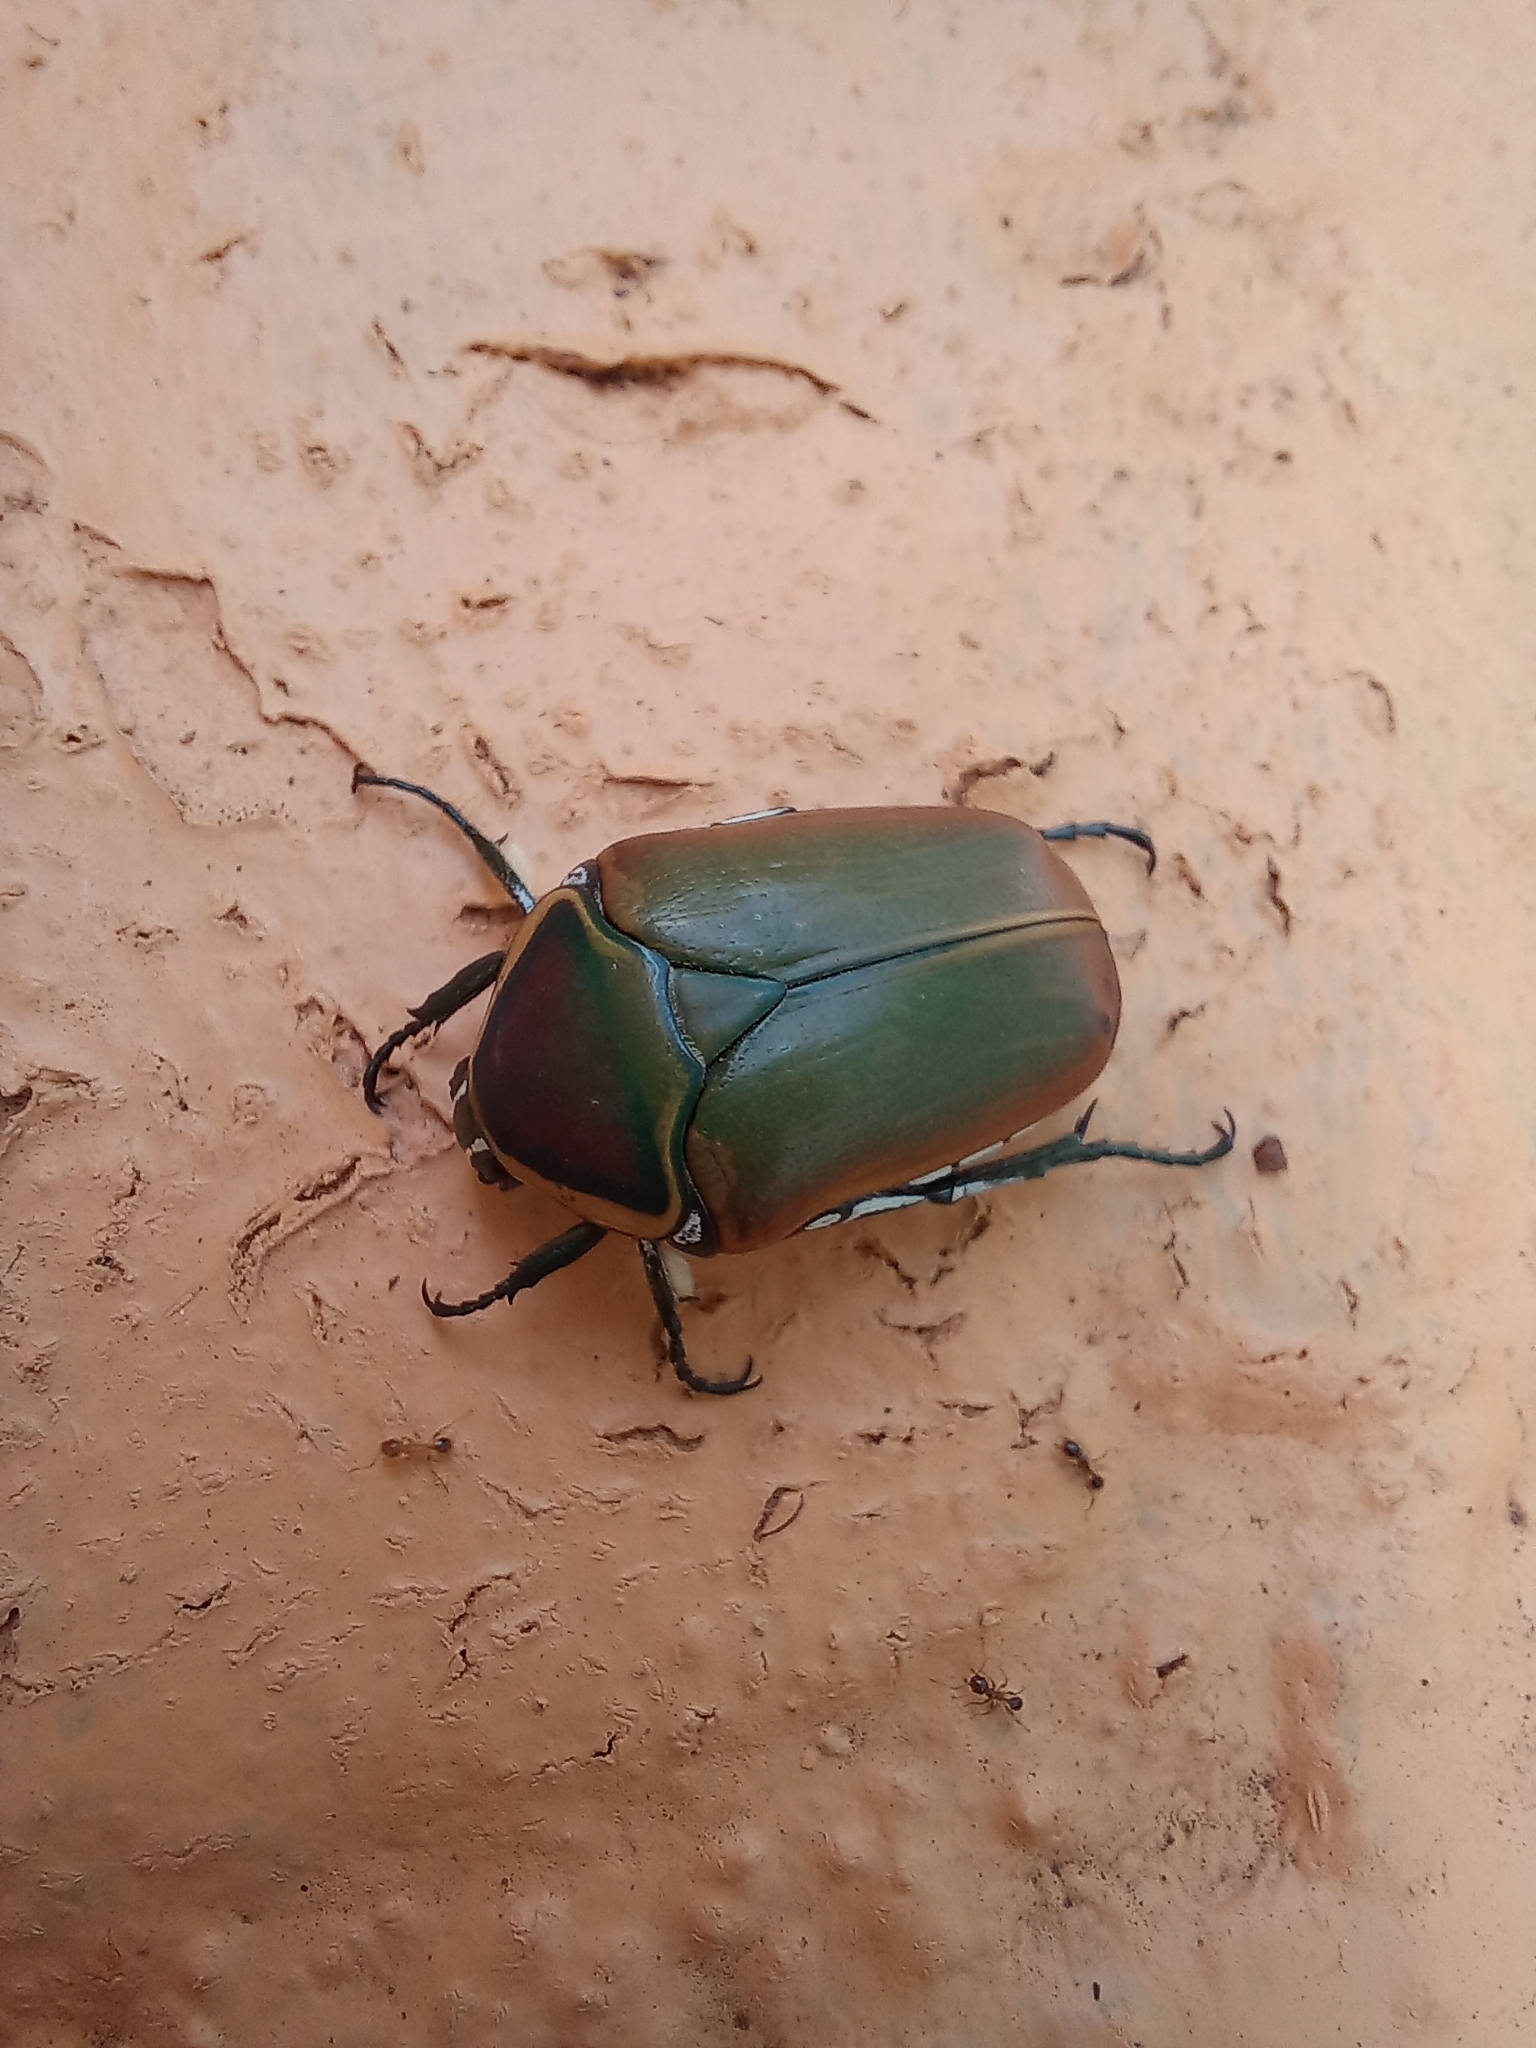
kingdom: Animalia
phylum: Arthropoda
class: Insecta
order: Coleoptera
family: Scarabaeidae
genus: Dischista
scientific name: Dischista cincta
